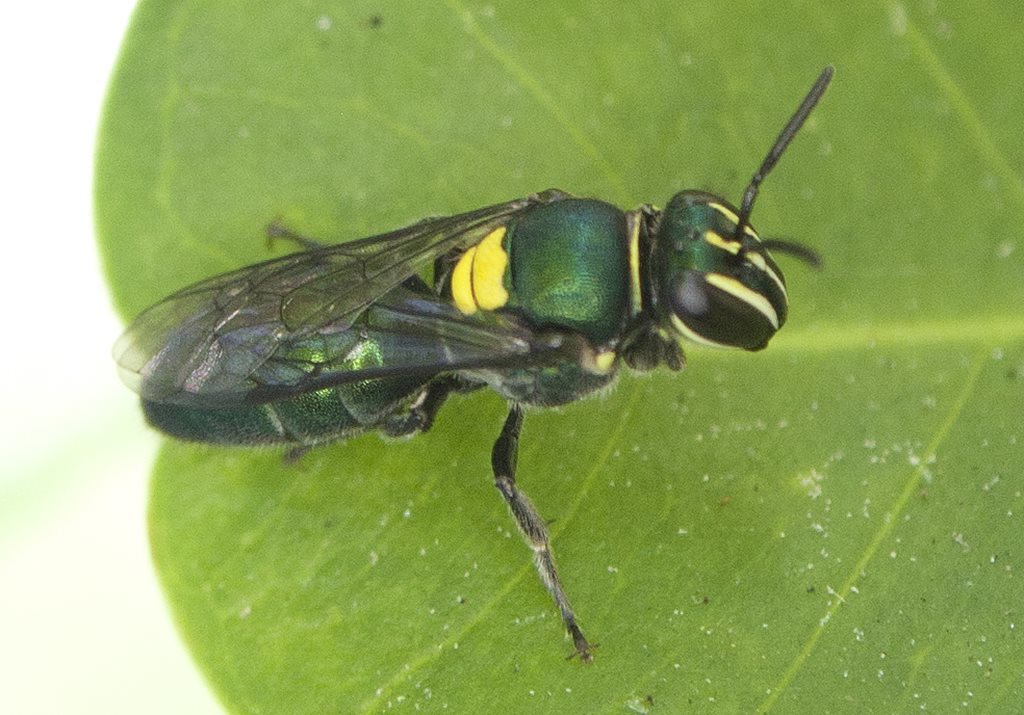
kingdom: Animalia
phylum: Arthropoda
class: Insecta
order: Hymenoptera
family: Colletidae
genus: Palaeorhiza
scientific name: Palaeorhiza parallela
